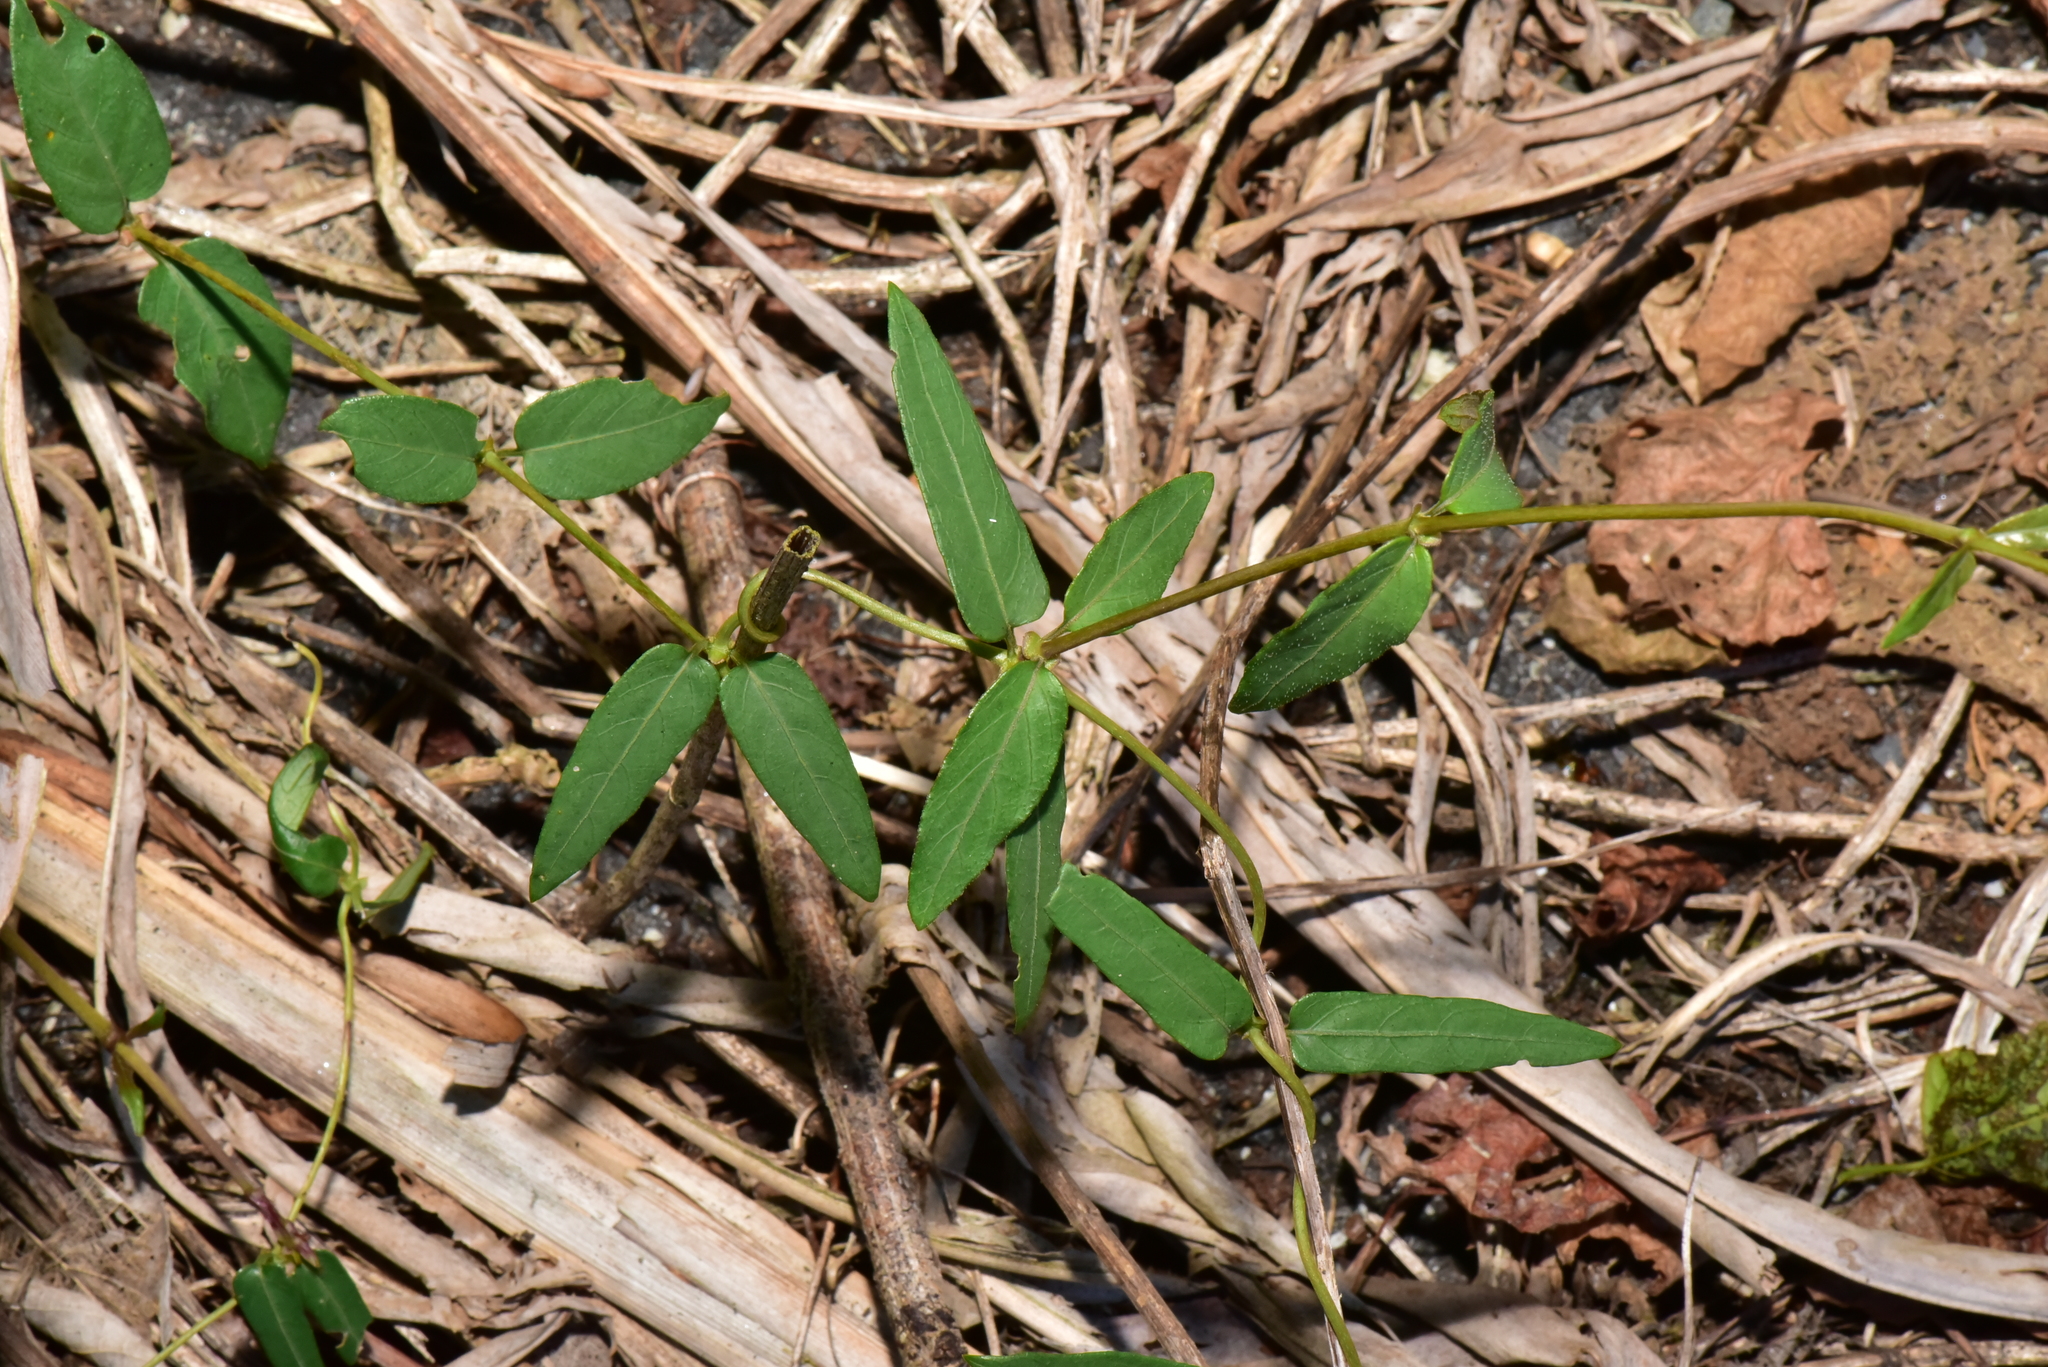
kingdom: Plantae
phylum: Tracheophyta
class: Magnoliopsida
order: Gentianales
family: Rubiaceae
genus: Paederia
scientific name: Paederia foetida
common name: Stinkvine
